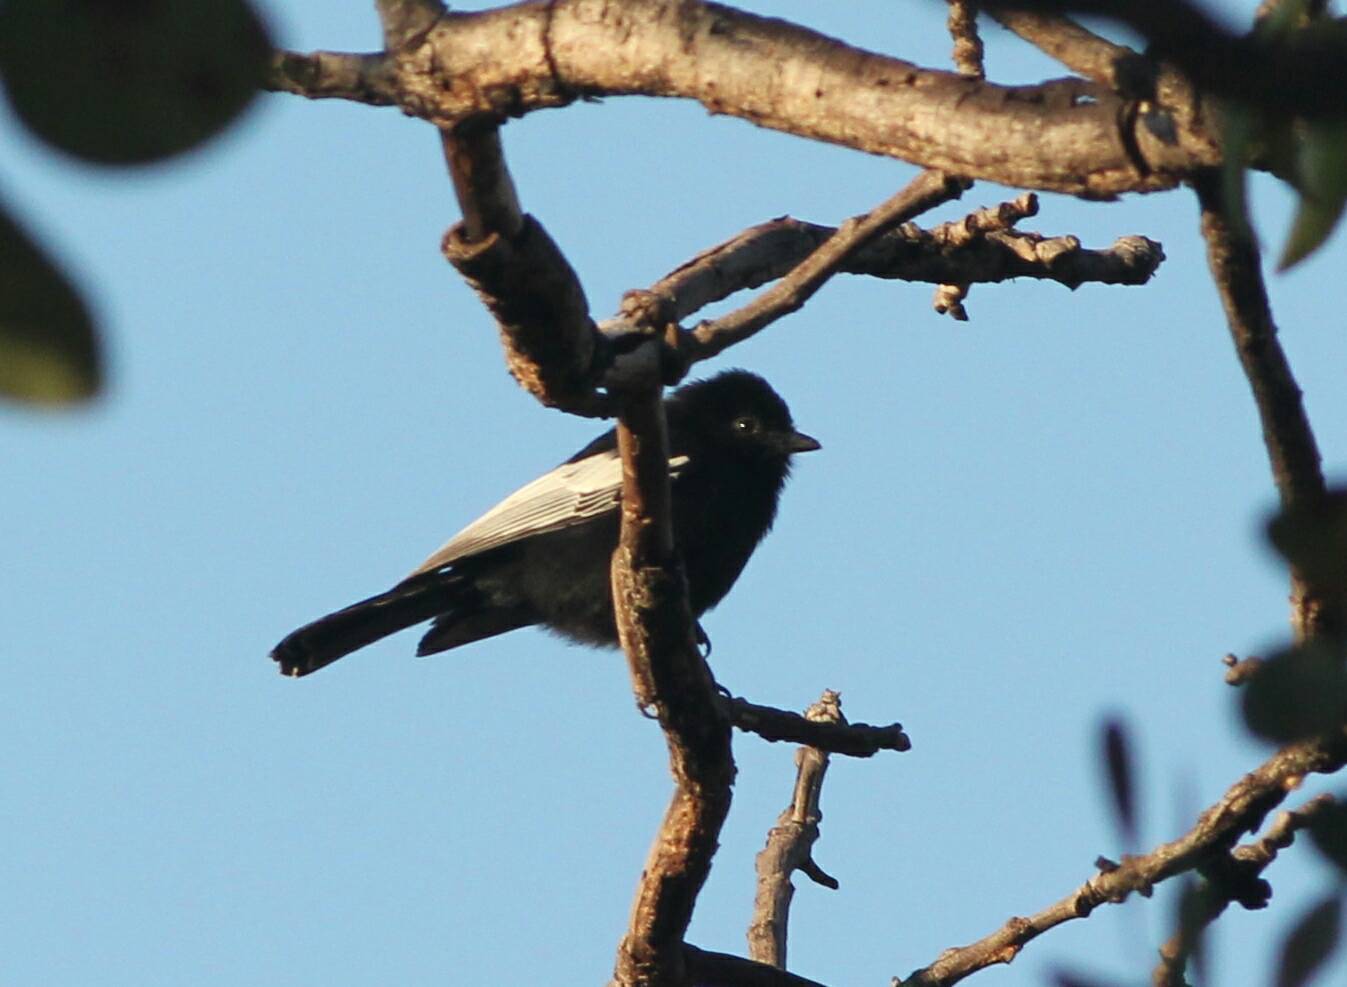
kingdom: Animalia
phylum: Chordata
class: Aves
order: Passeriformes
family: Paridae
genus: Parus
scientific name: Parus leucomelas
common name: White-winged black tit
